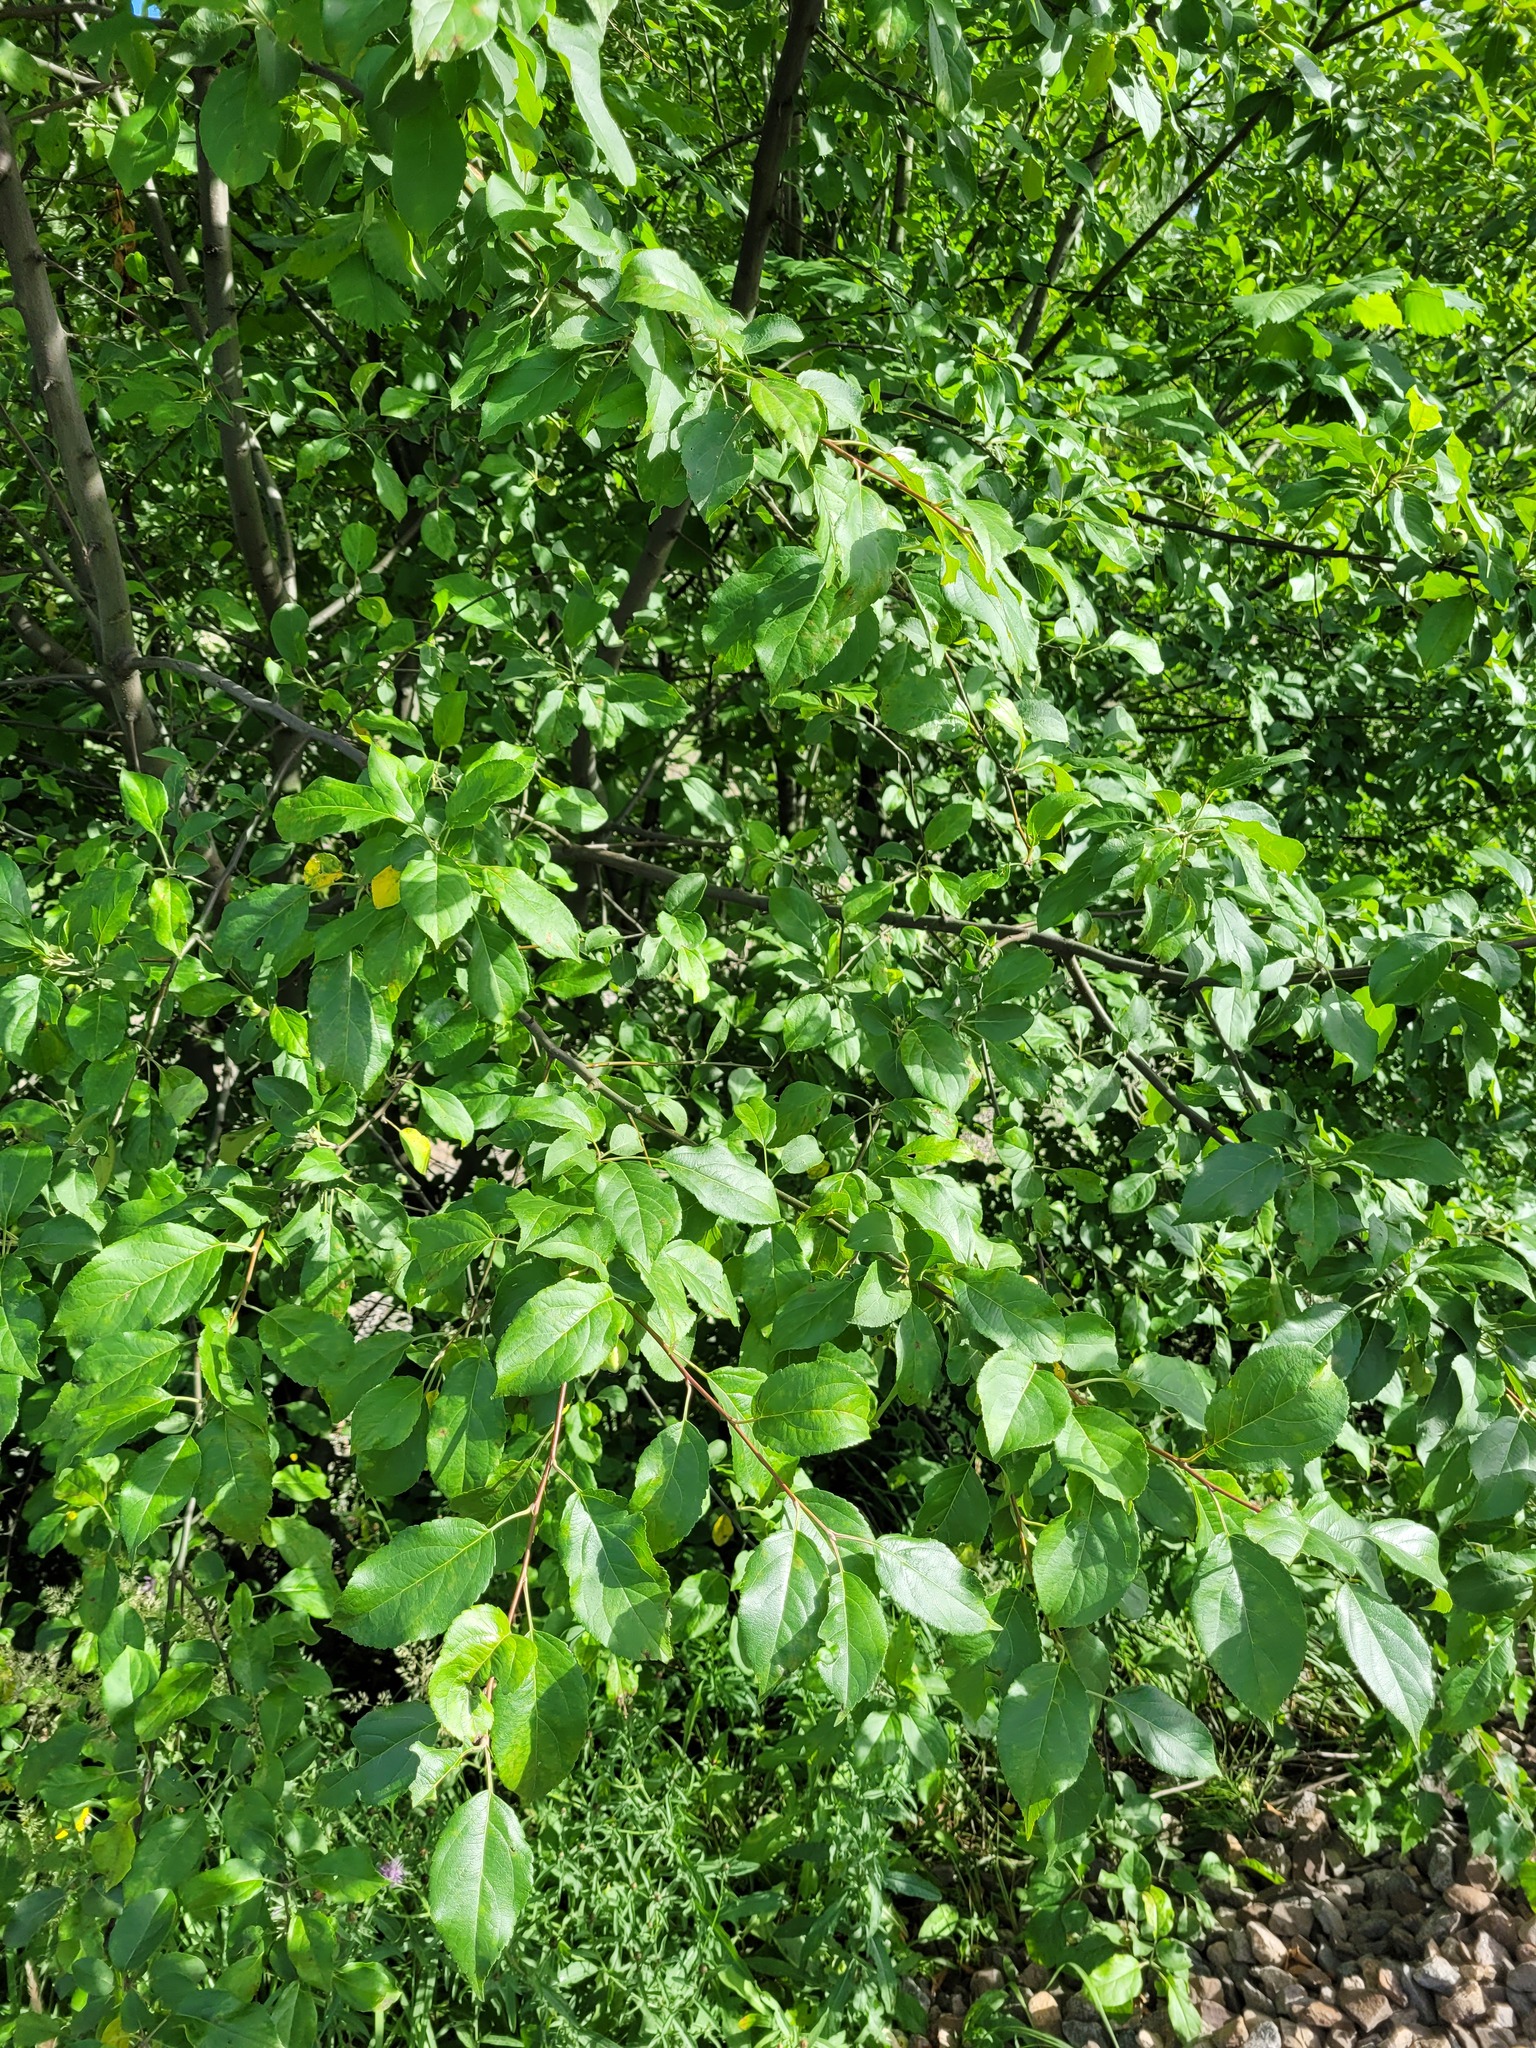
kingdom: Plantae
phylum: Tracheophyta
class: Magnoliopsida
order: Rosales
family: Rosaceae
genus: Malus
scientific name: Malus domestica
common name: Apple
